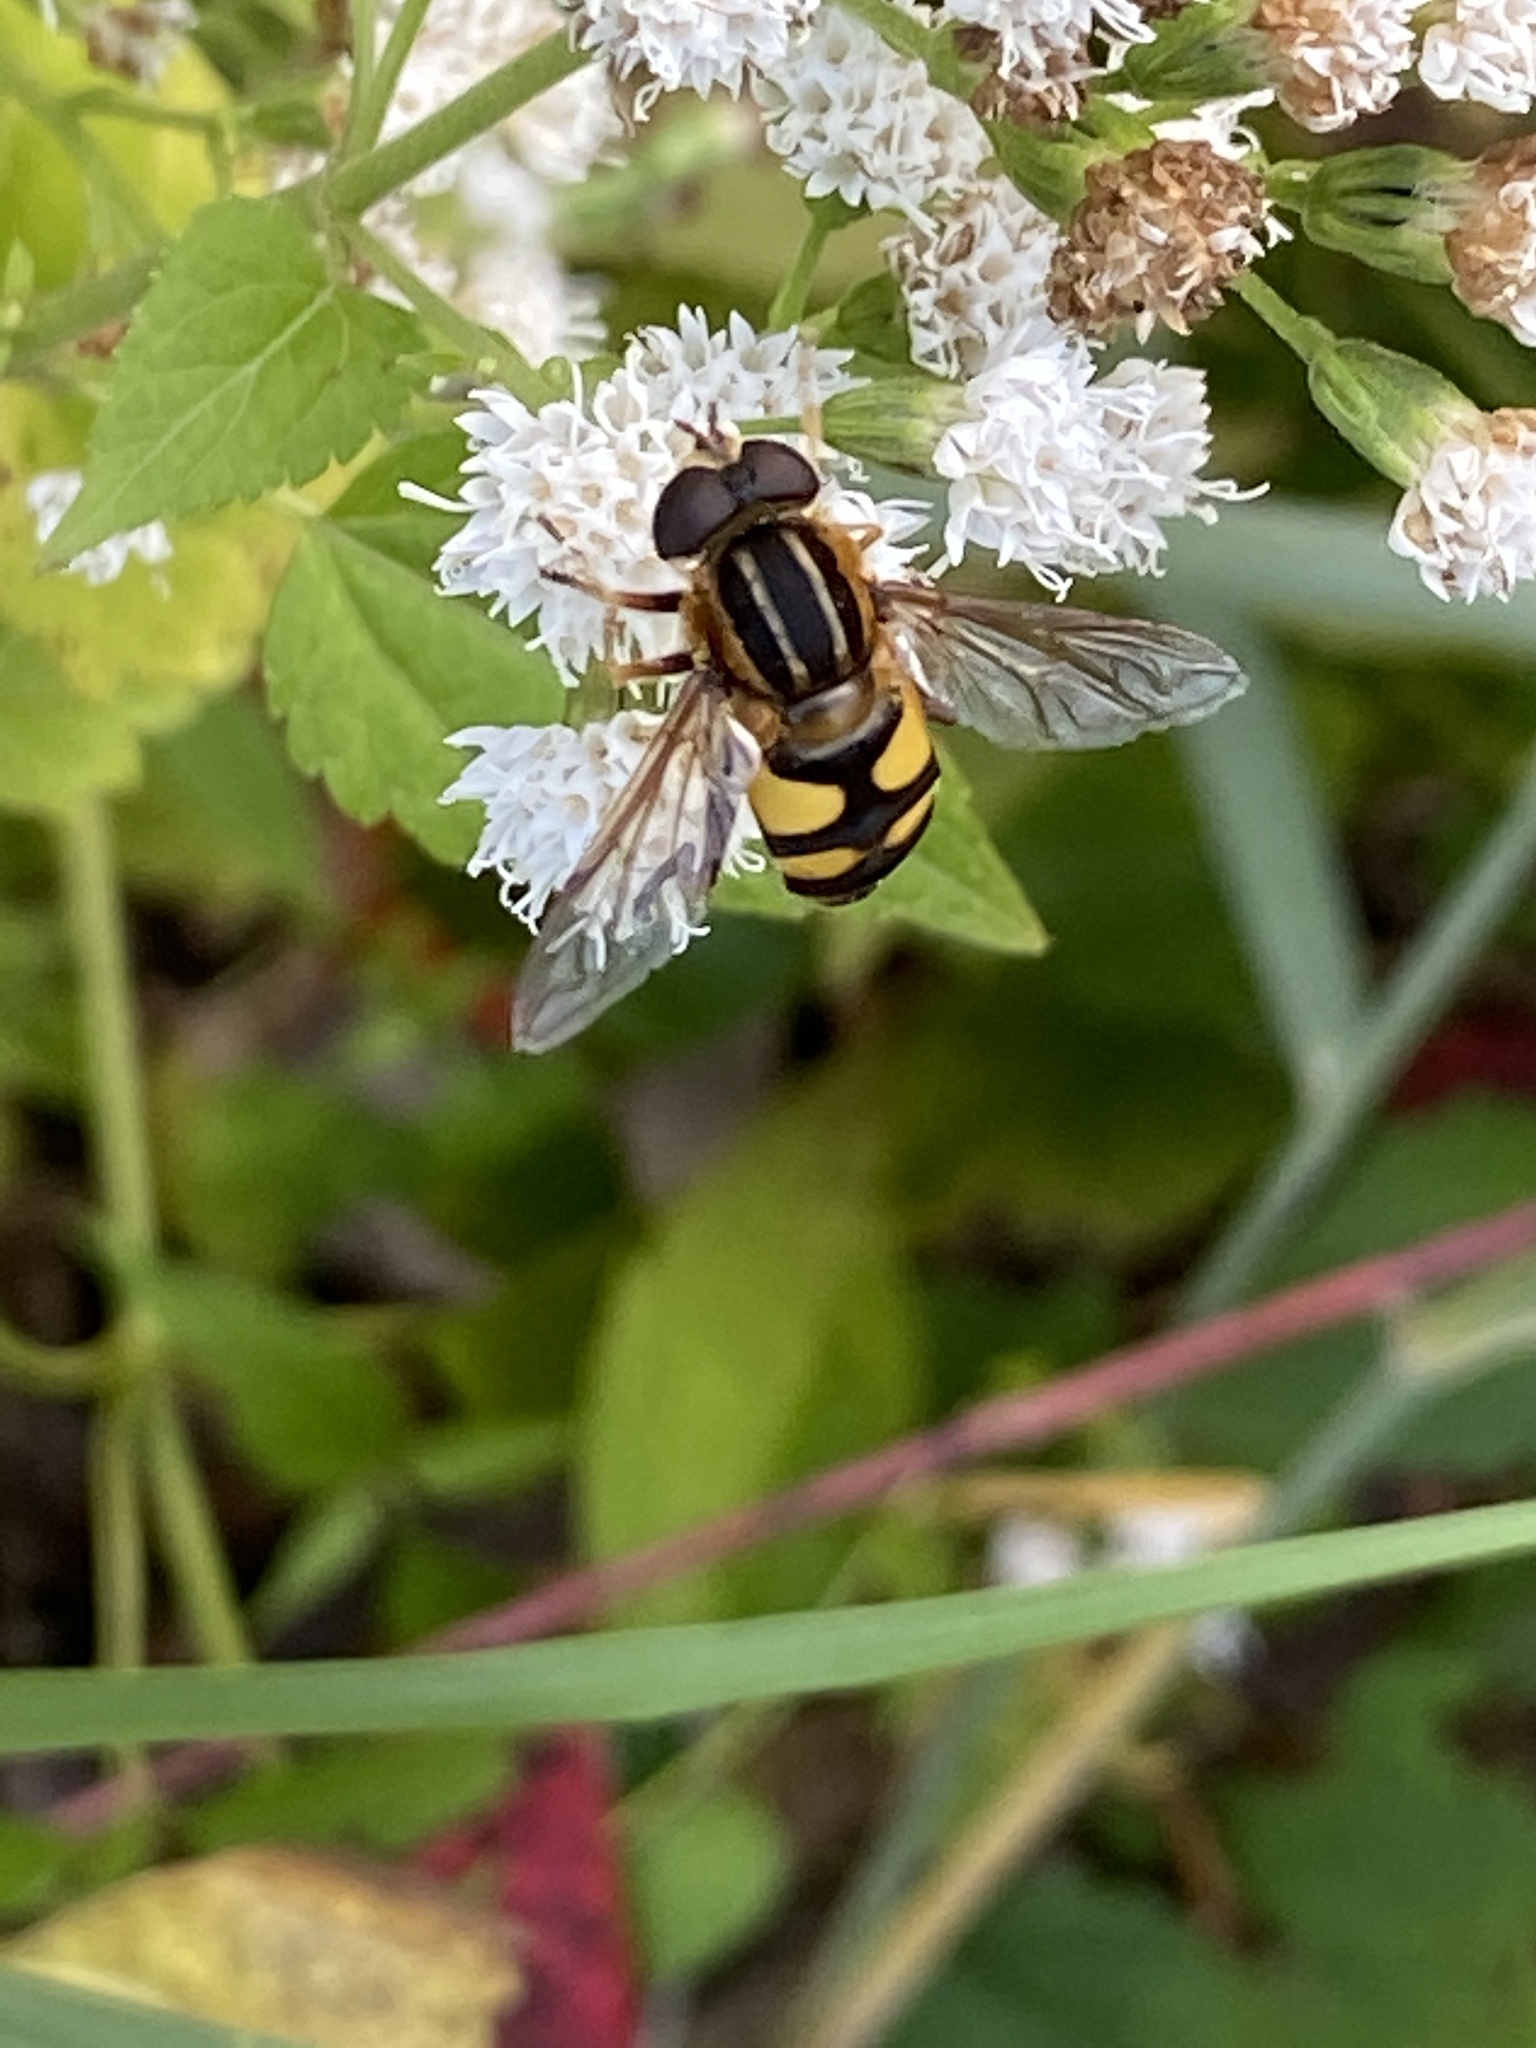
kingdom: Animalia
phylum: Arthropoda
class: Insecta
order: Diptera
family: Syrphidae
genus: Helophilus
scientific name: Helophilus fasciatus
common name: Narrow-headed marsh fly
